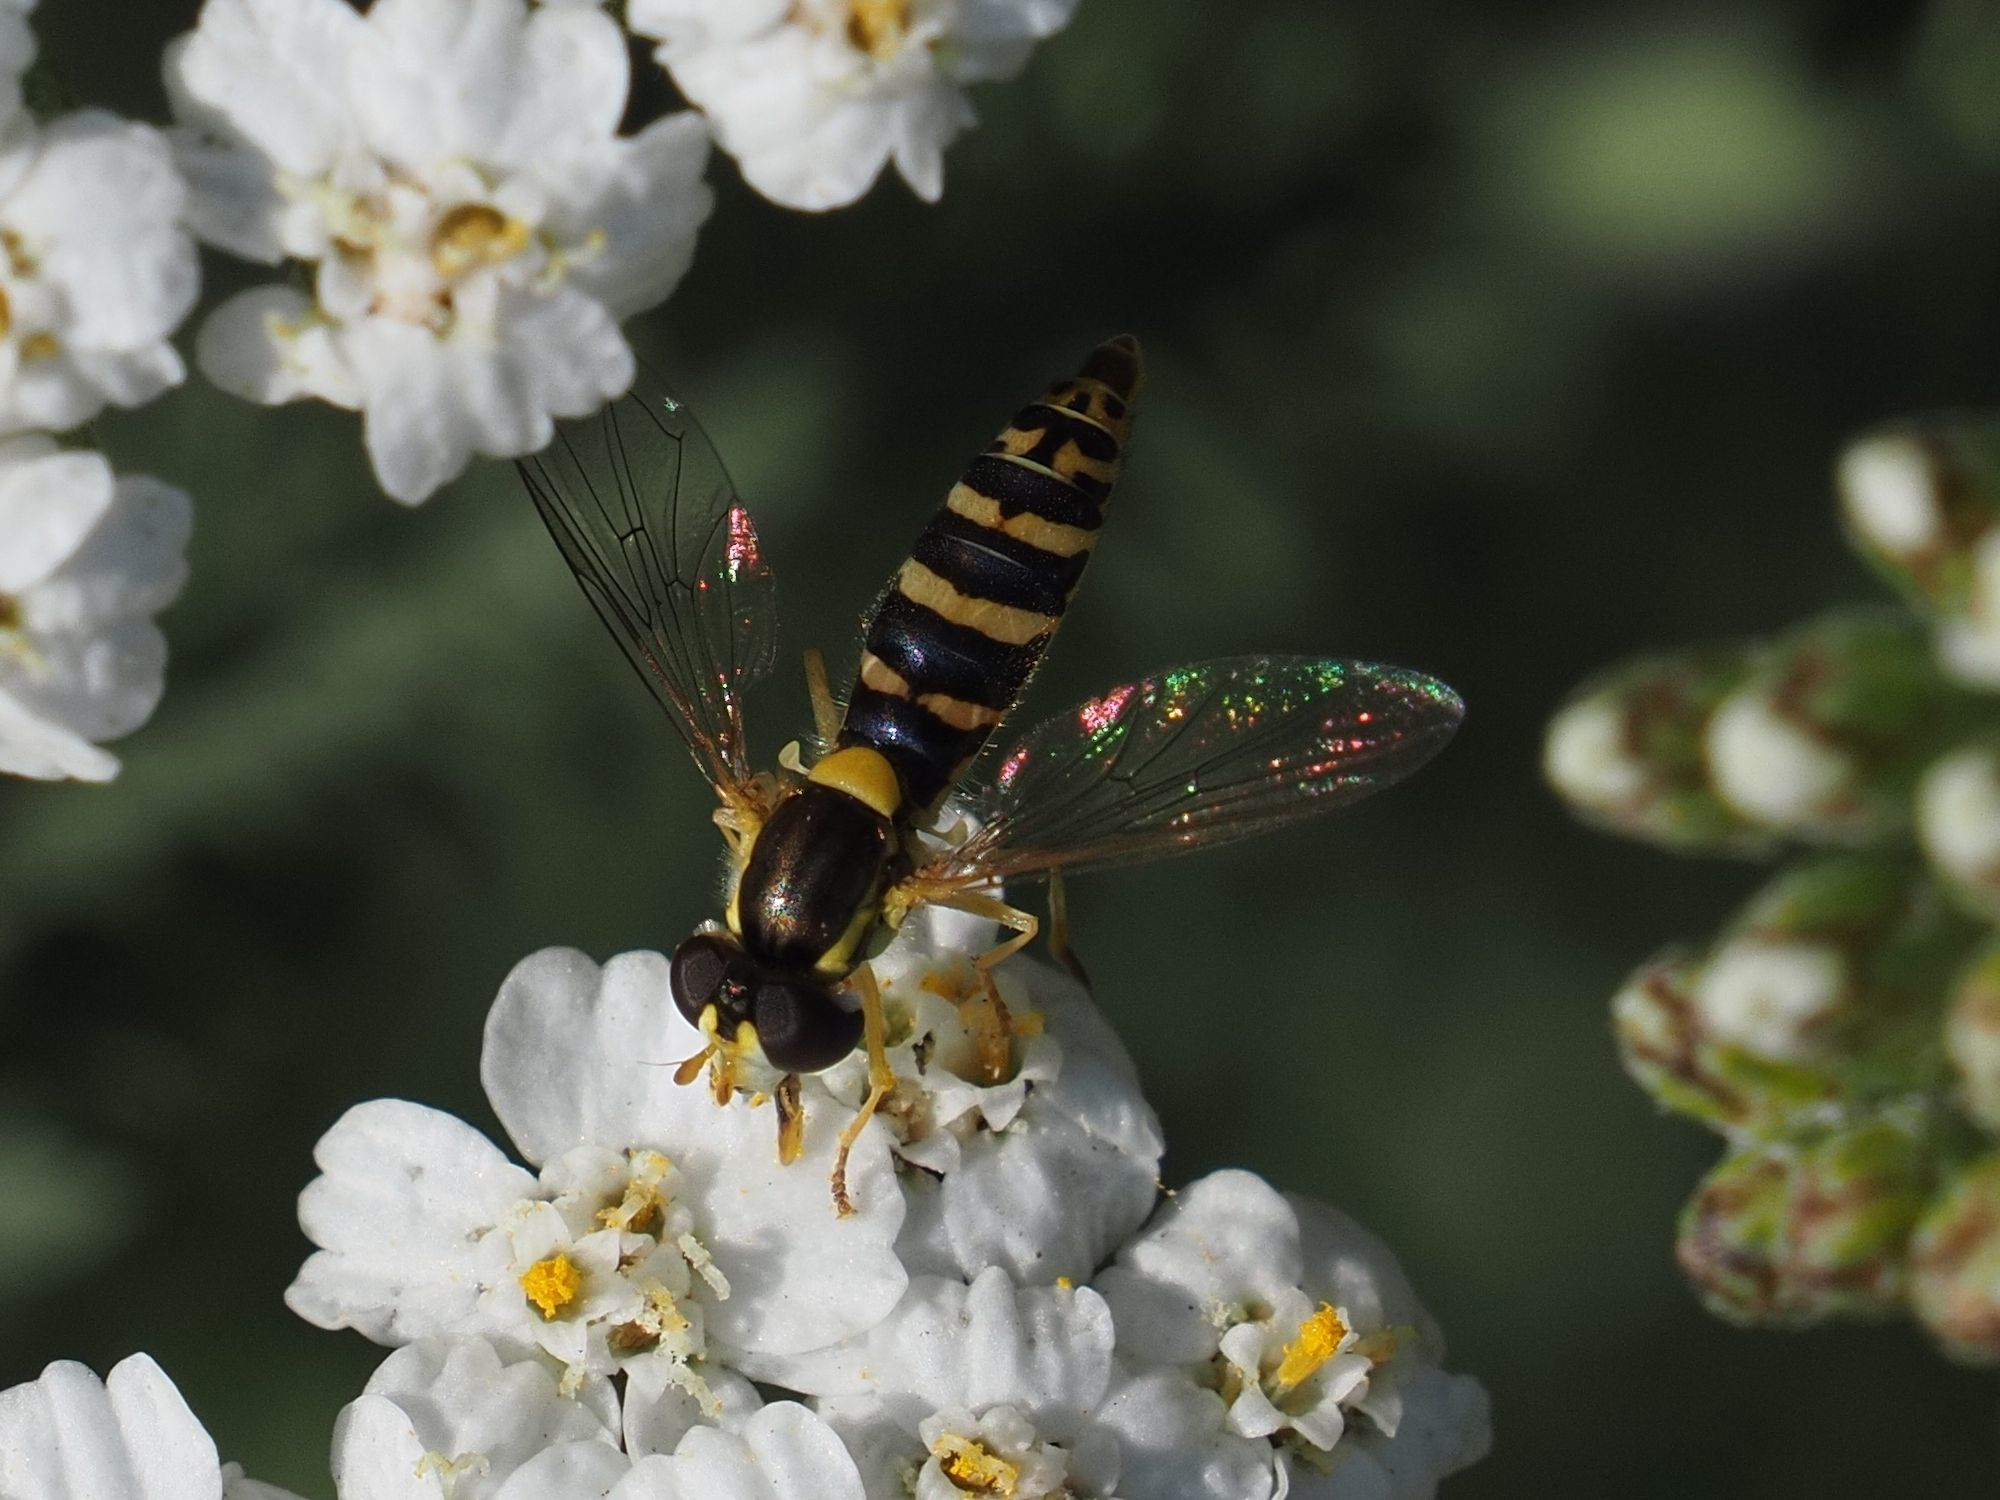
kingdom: Animalia
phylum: Arthropoda
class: Insecta
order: Diptera
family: Syrphidae
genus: Sphaerophoria
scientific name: Sphaerophoria
